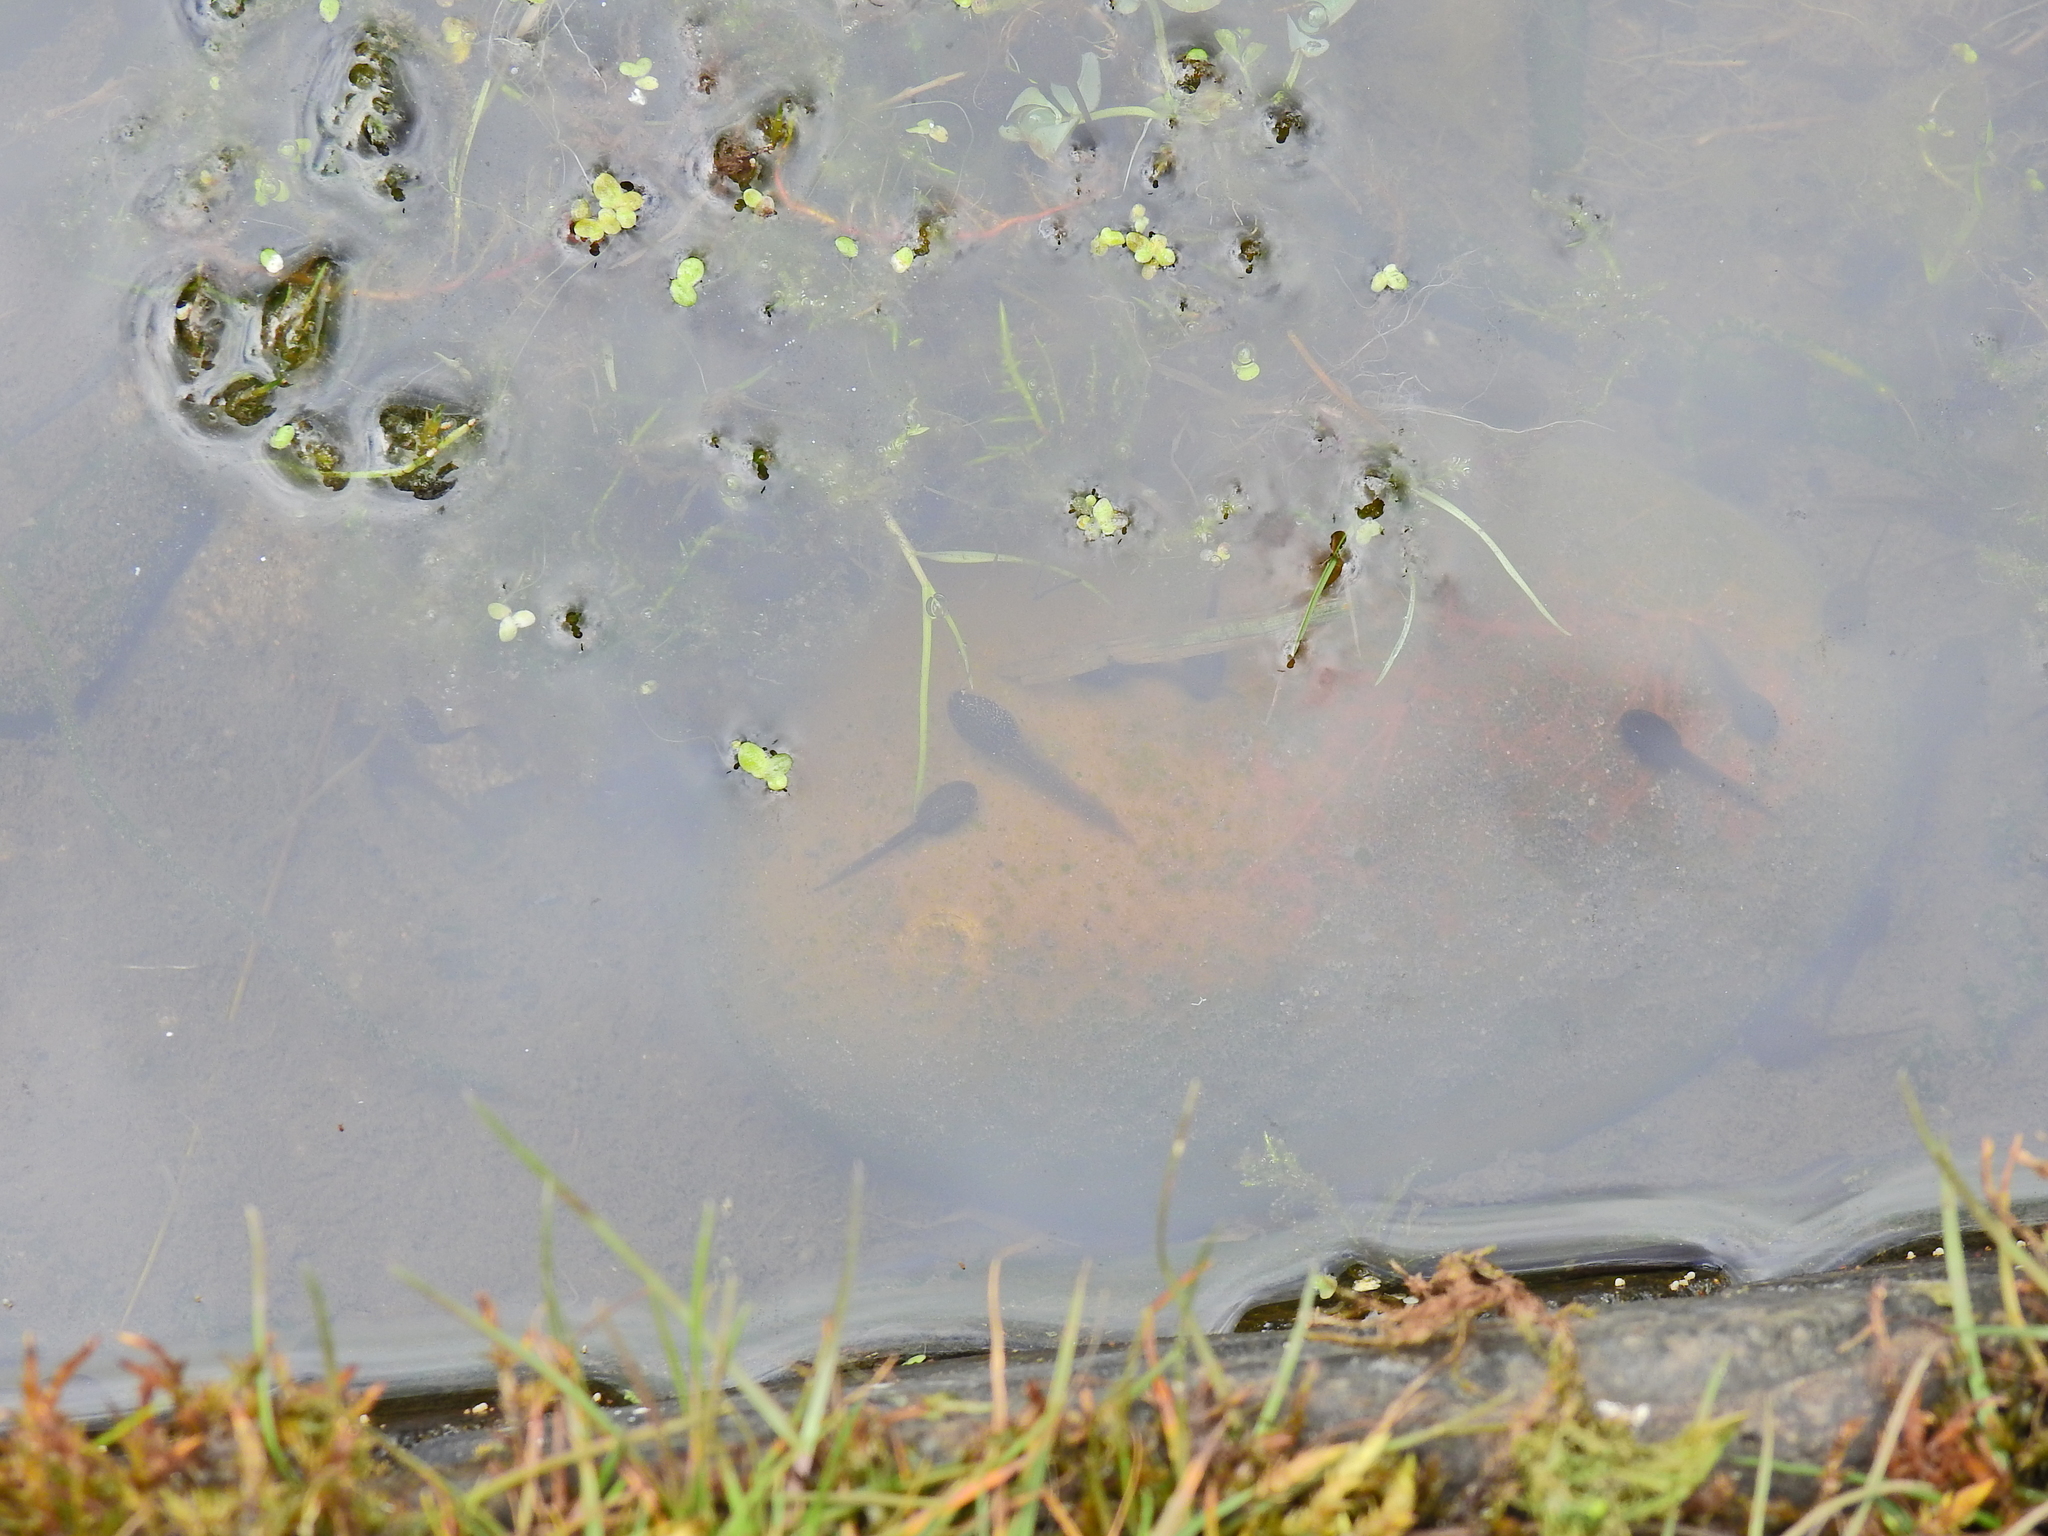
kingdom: Animalia
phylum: Chordata
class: Amphibia
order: Anura
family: Ranidae
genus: Rana
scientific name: Rana temporaria
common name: Common frog
